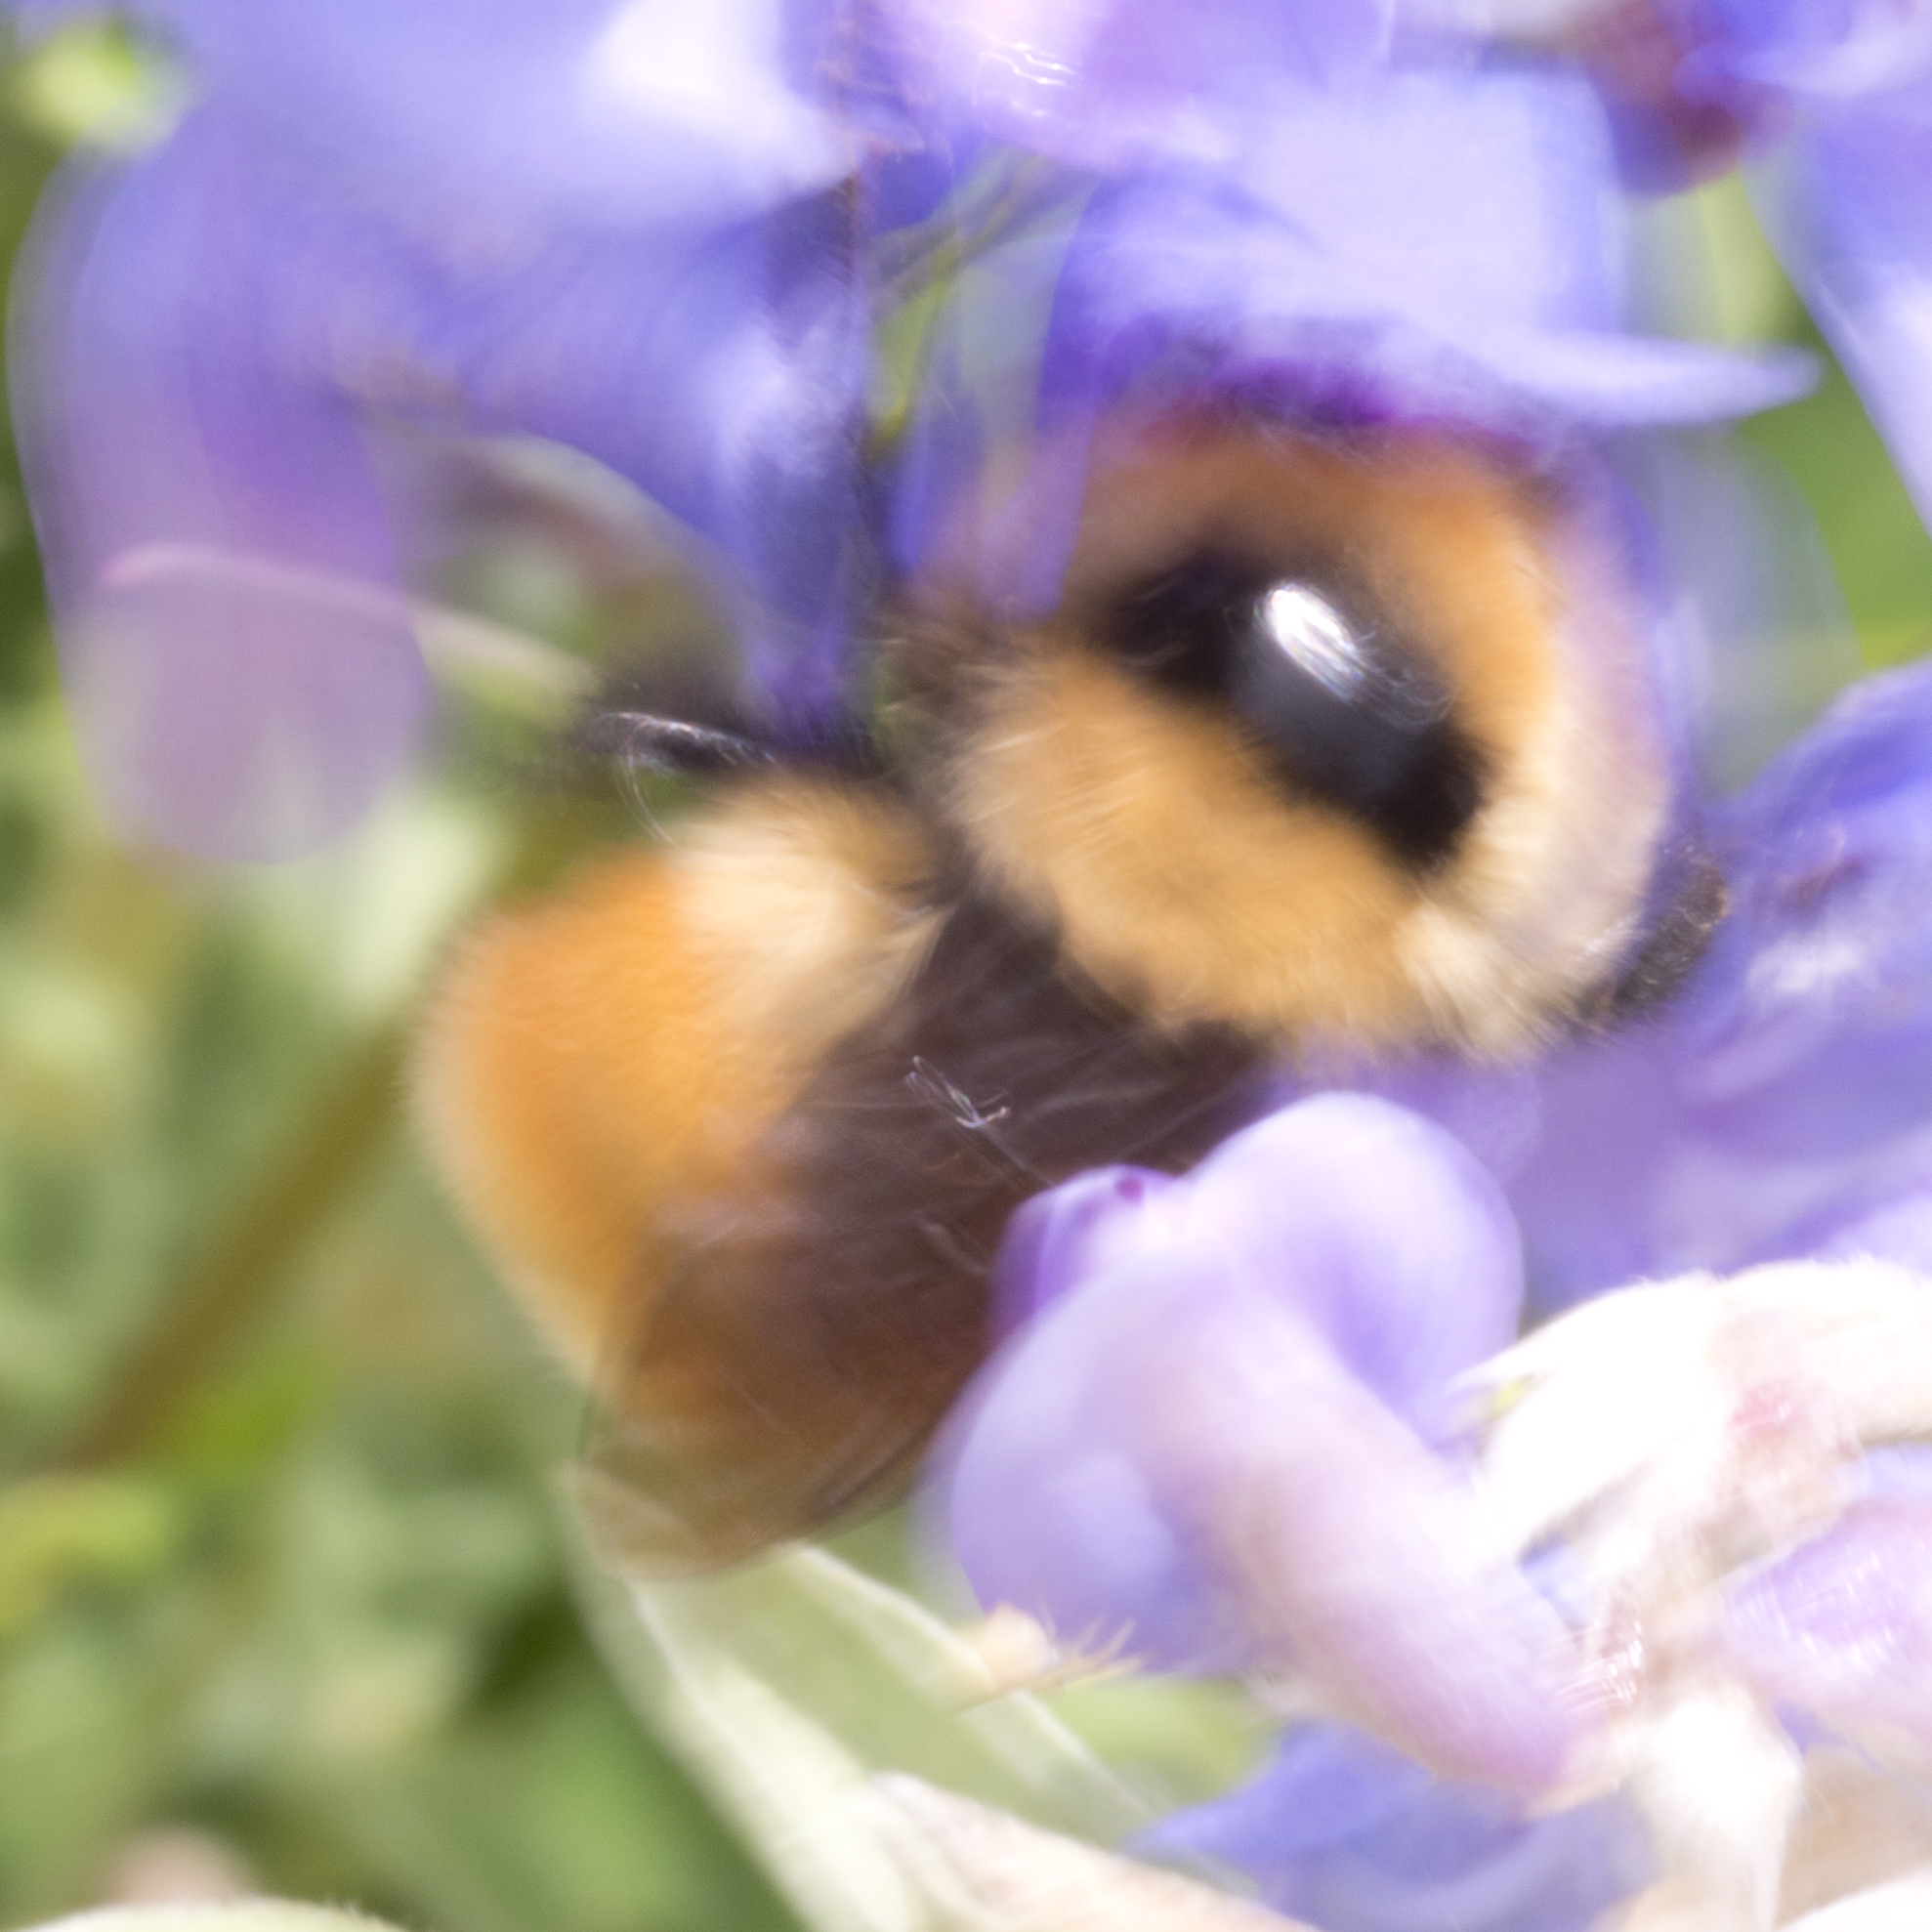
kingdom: Animalia
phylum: Arthropoda
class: Insecta
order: Hymenoptera
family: Apidae
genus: Bombus
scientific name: Bombus huntii
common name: Hunt bumble bee
